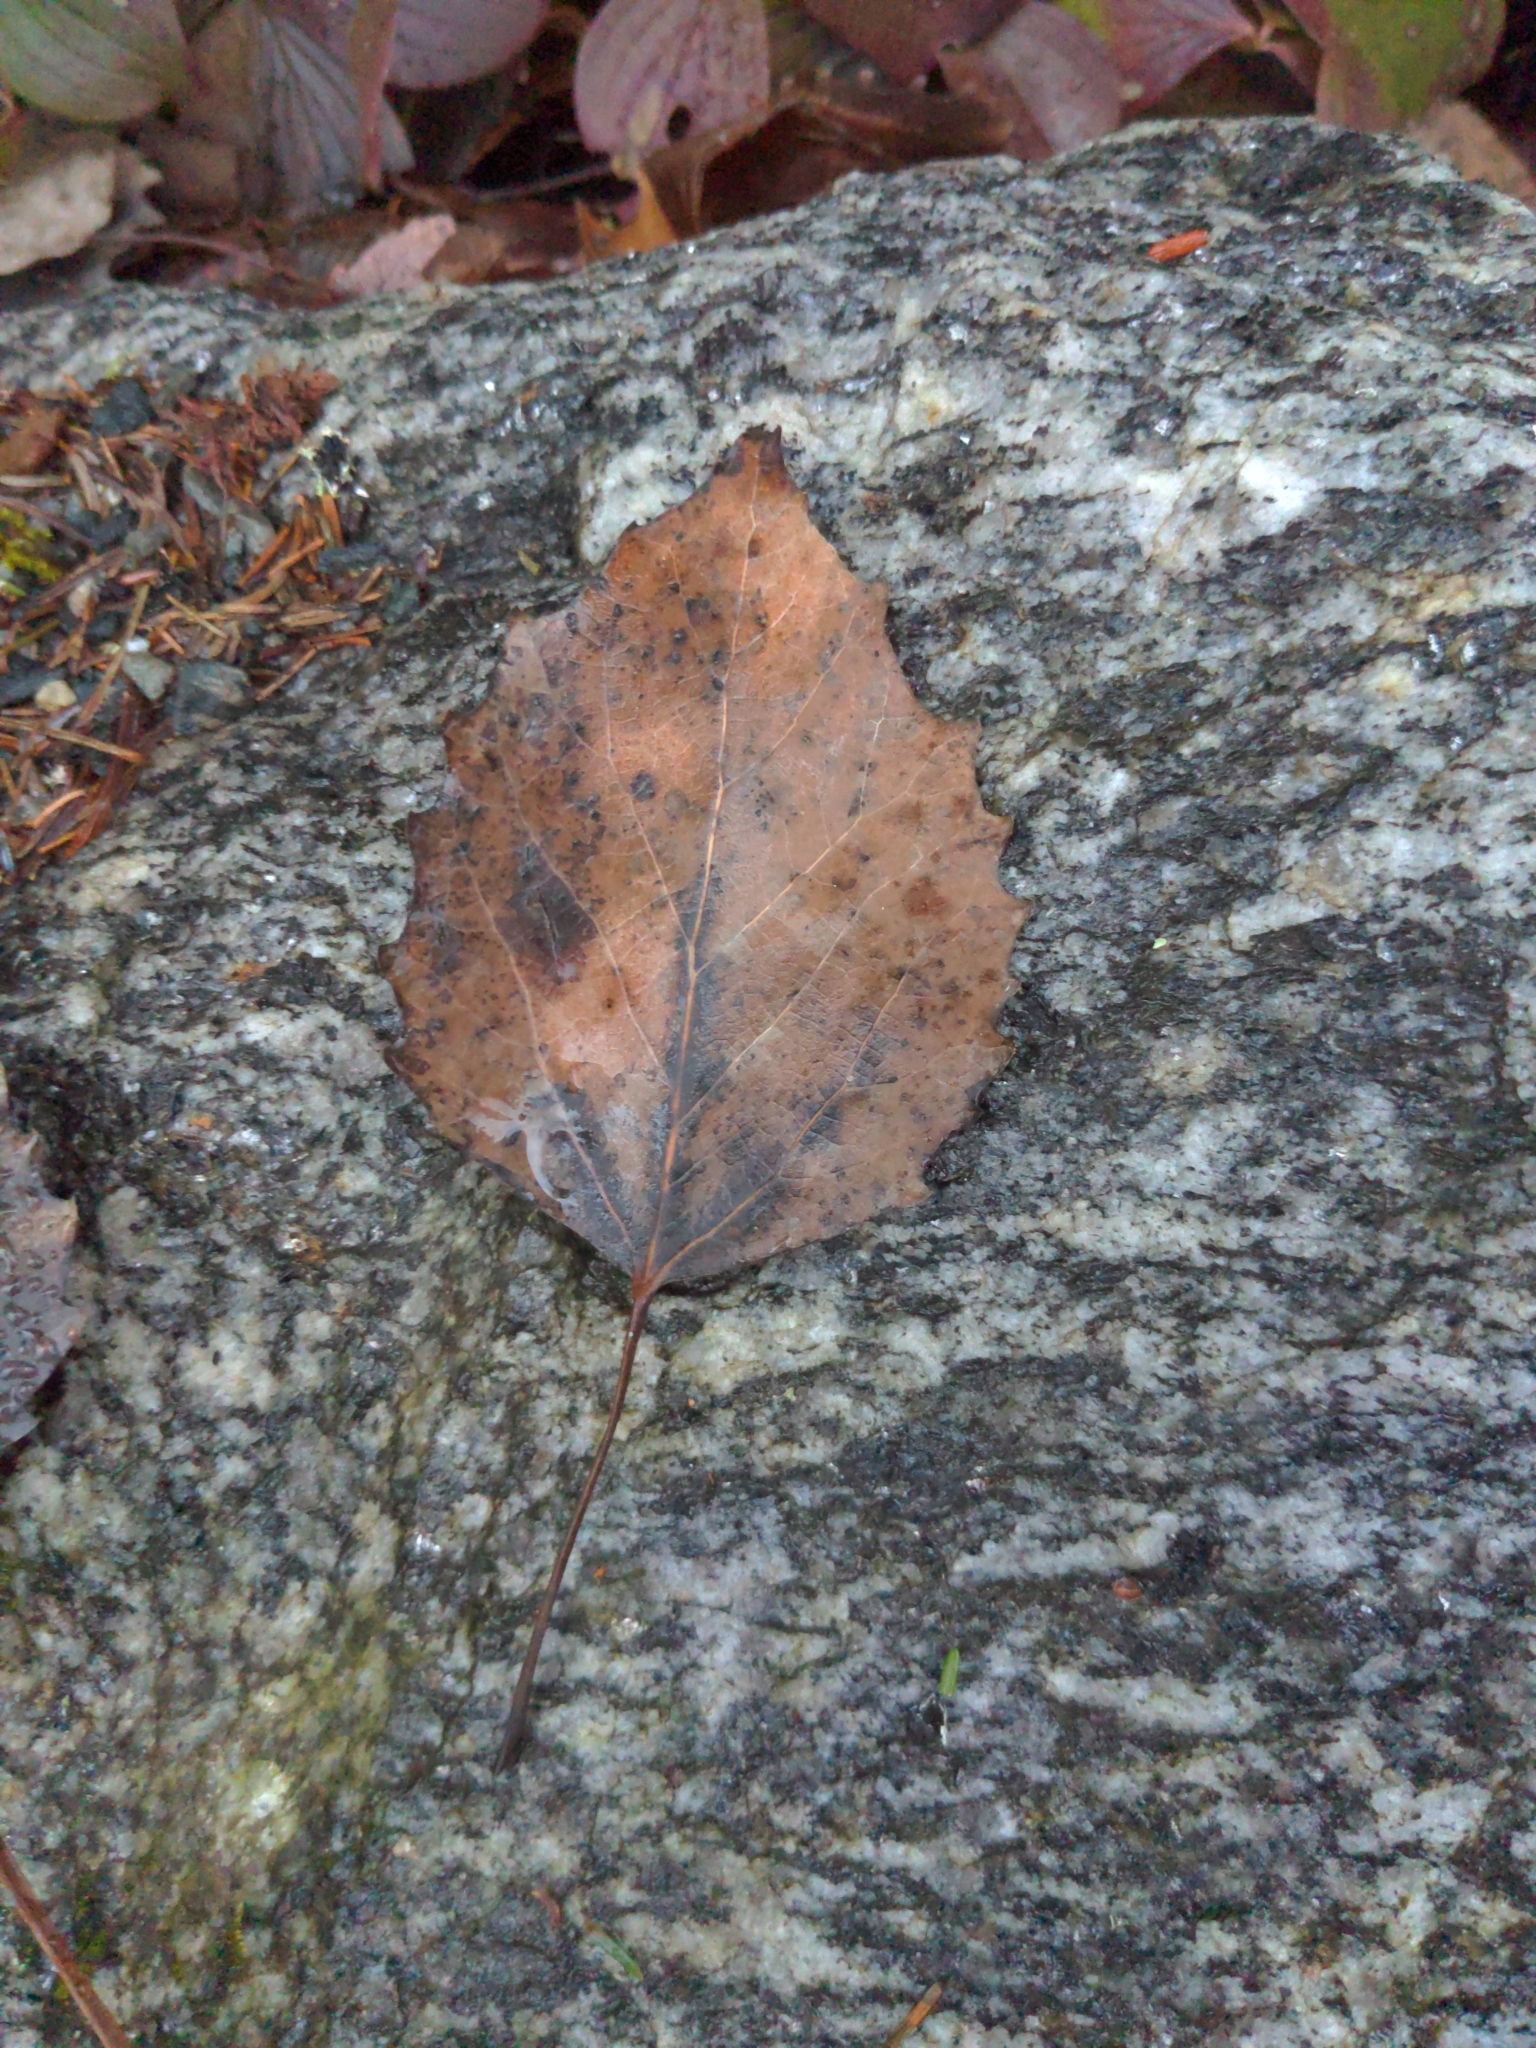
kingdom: Plantae
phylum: Tracheophyta
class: Magnoliopsida
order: Malpighiales
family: Salicaceae
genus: Populus
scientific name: Populus grandidentata
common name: Bigtooth aspen
